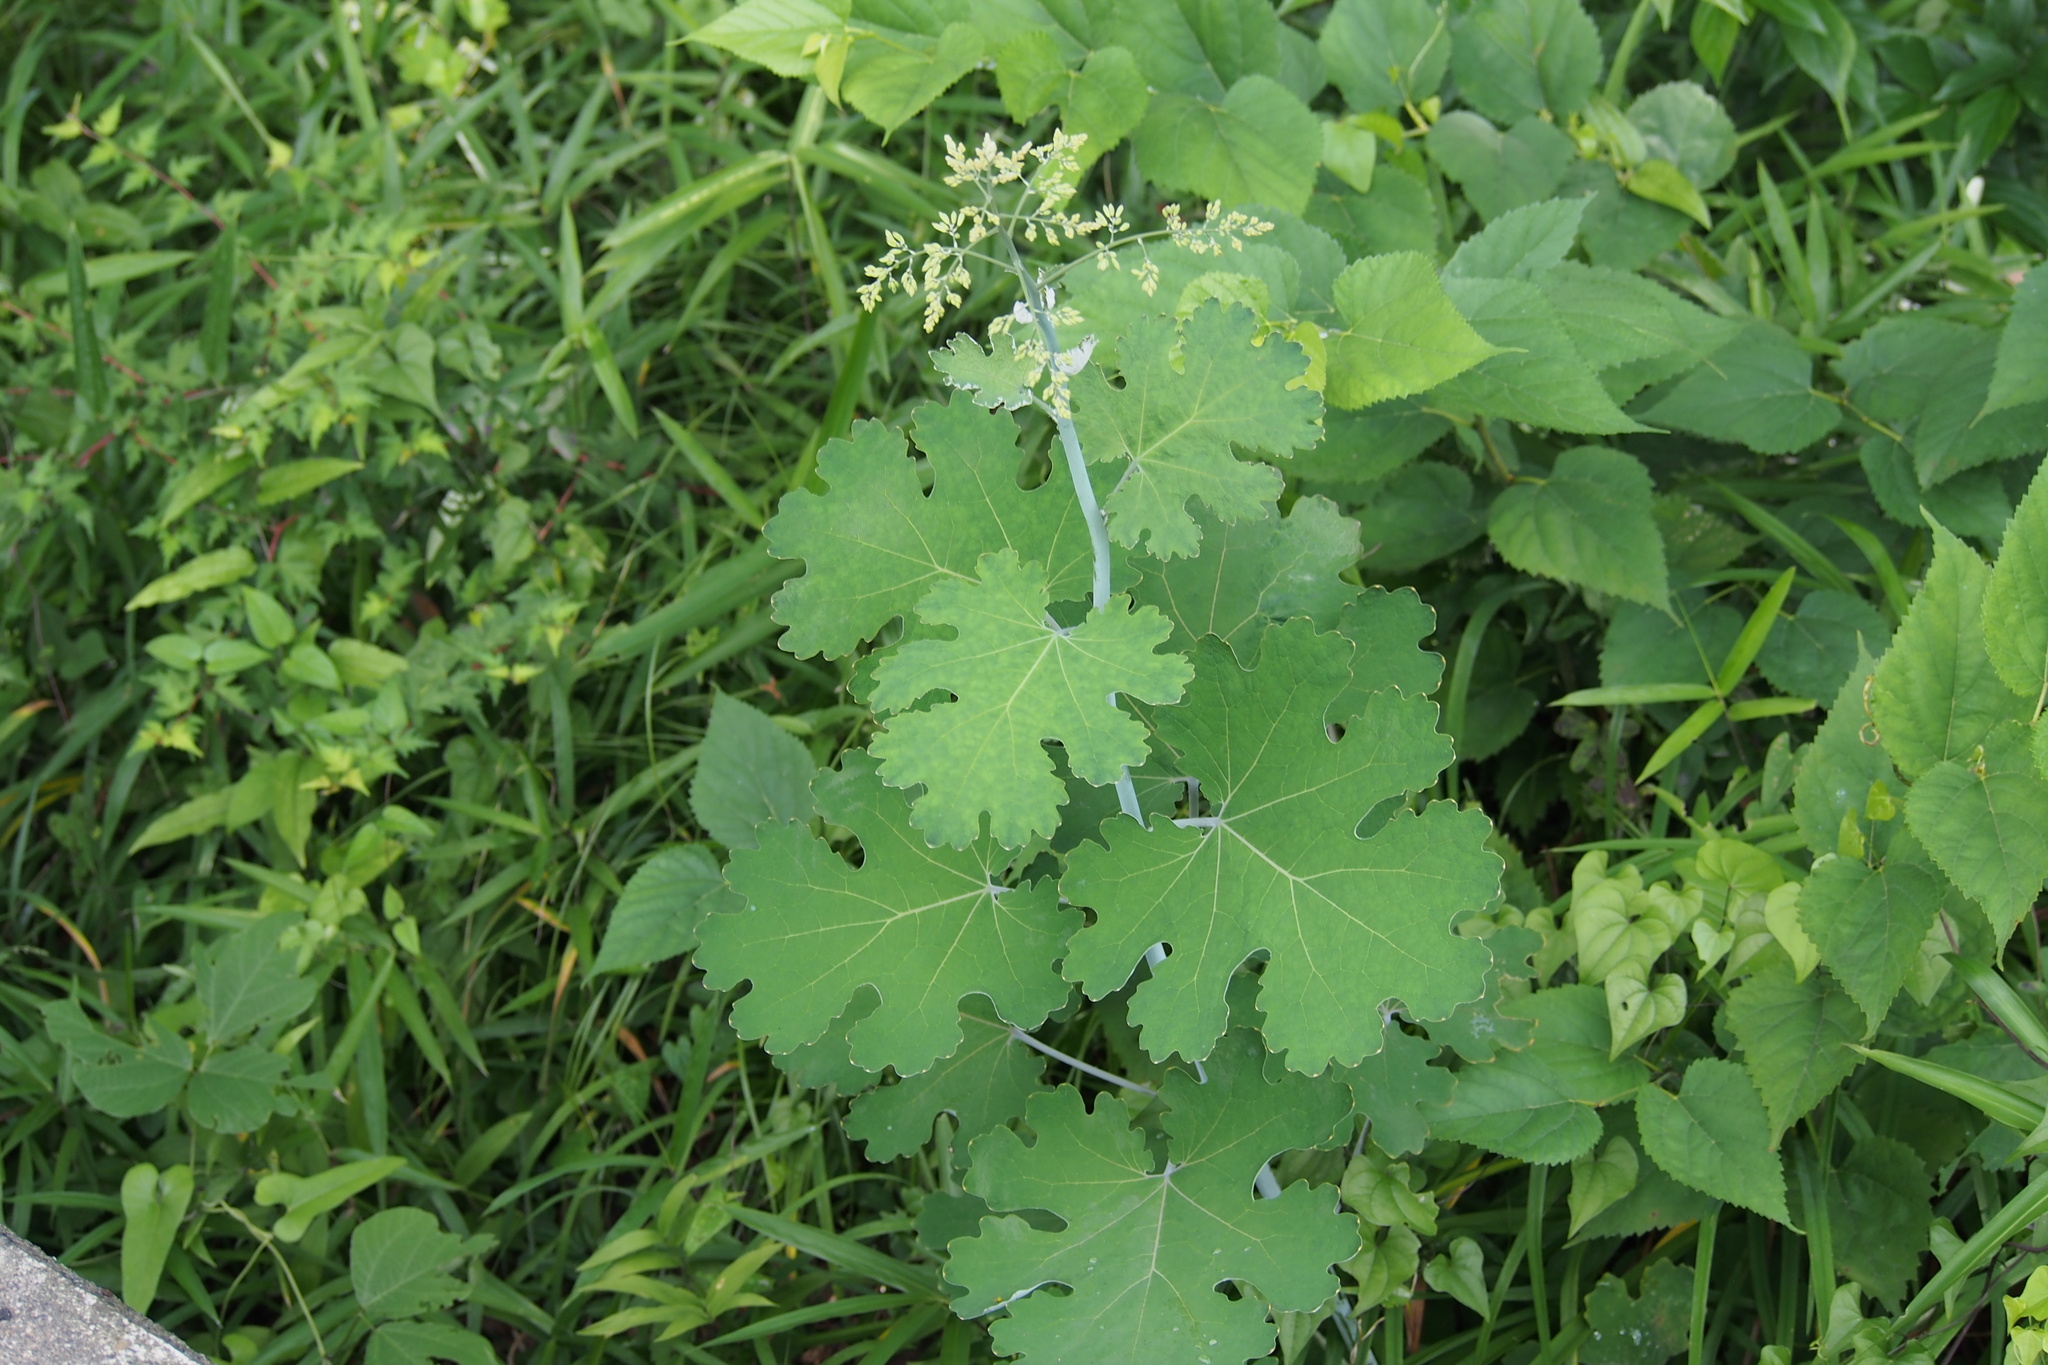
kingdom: Plantae
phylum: Tracheophyta
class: Magnoliopsida
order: Ranunculales
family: Papaveraceae
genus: Macleaya
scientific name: Macleaya cordata
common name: Plume poppy
